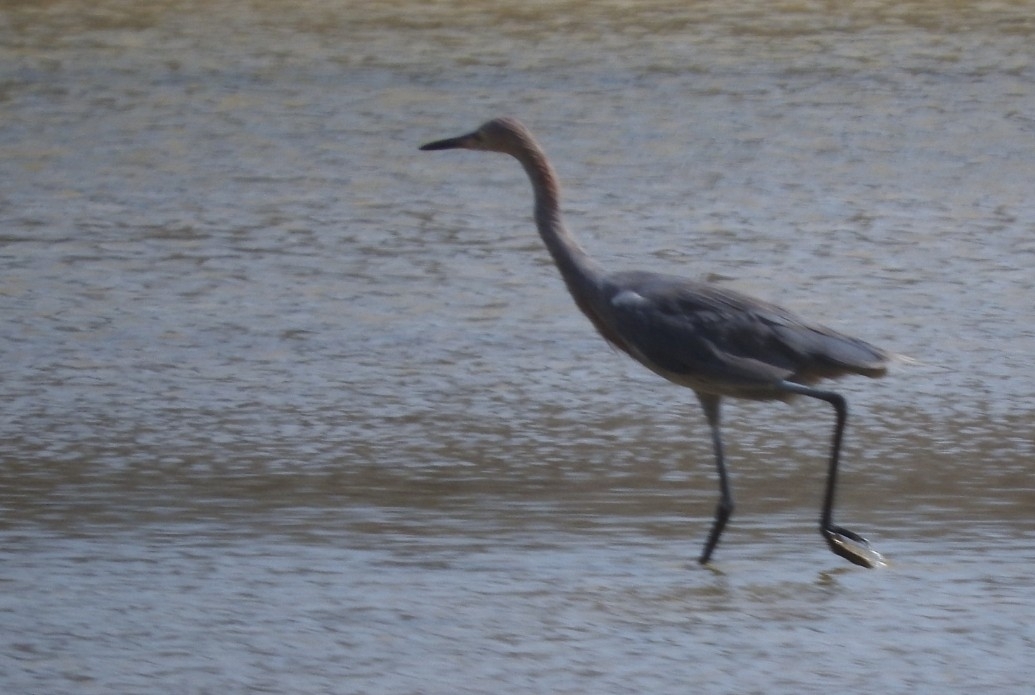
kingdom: Animalia
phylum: Chordata
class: Aves
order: Pelecaniformes
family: Ardeidae
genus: Egretta
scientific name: Egretta rufescens
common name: Reddish egret
